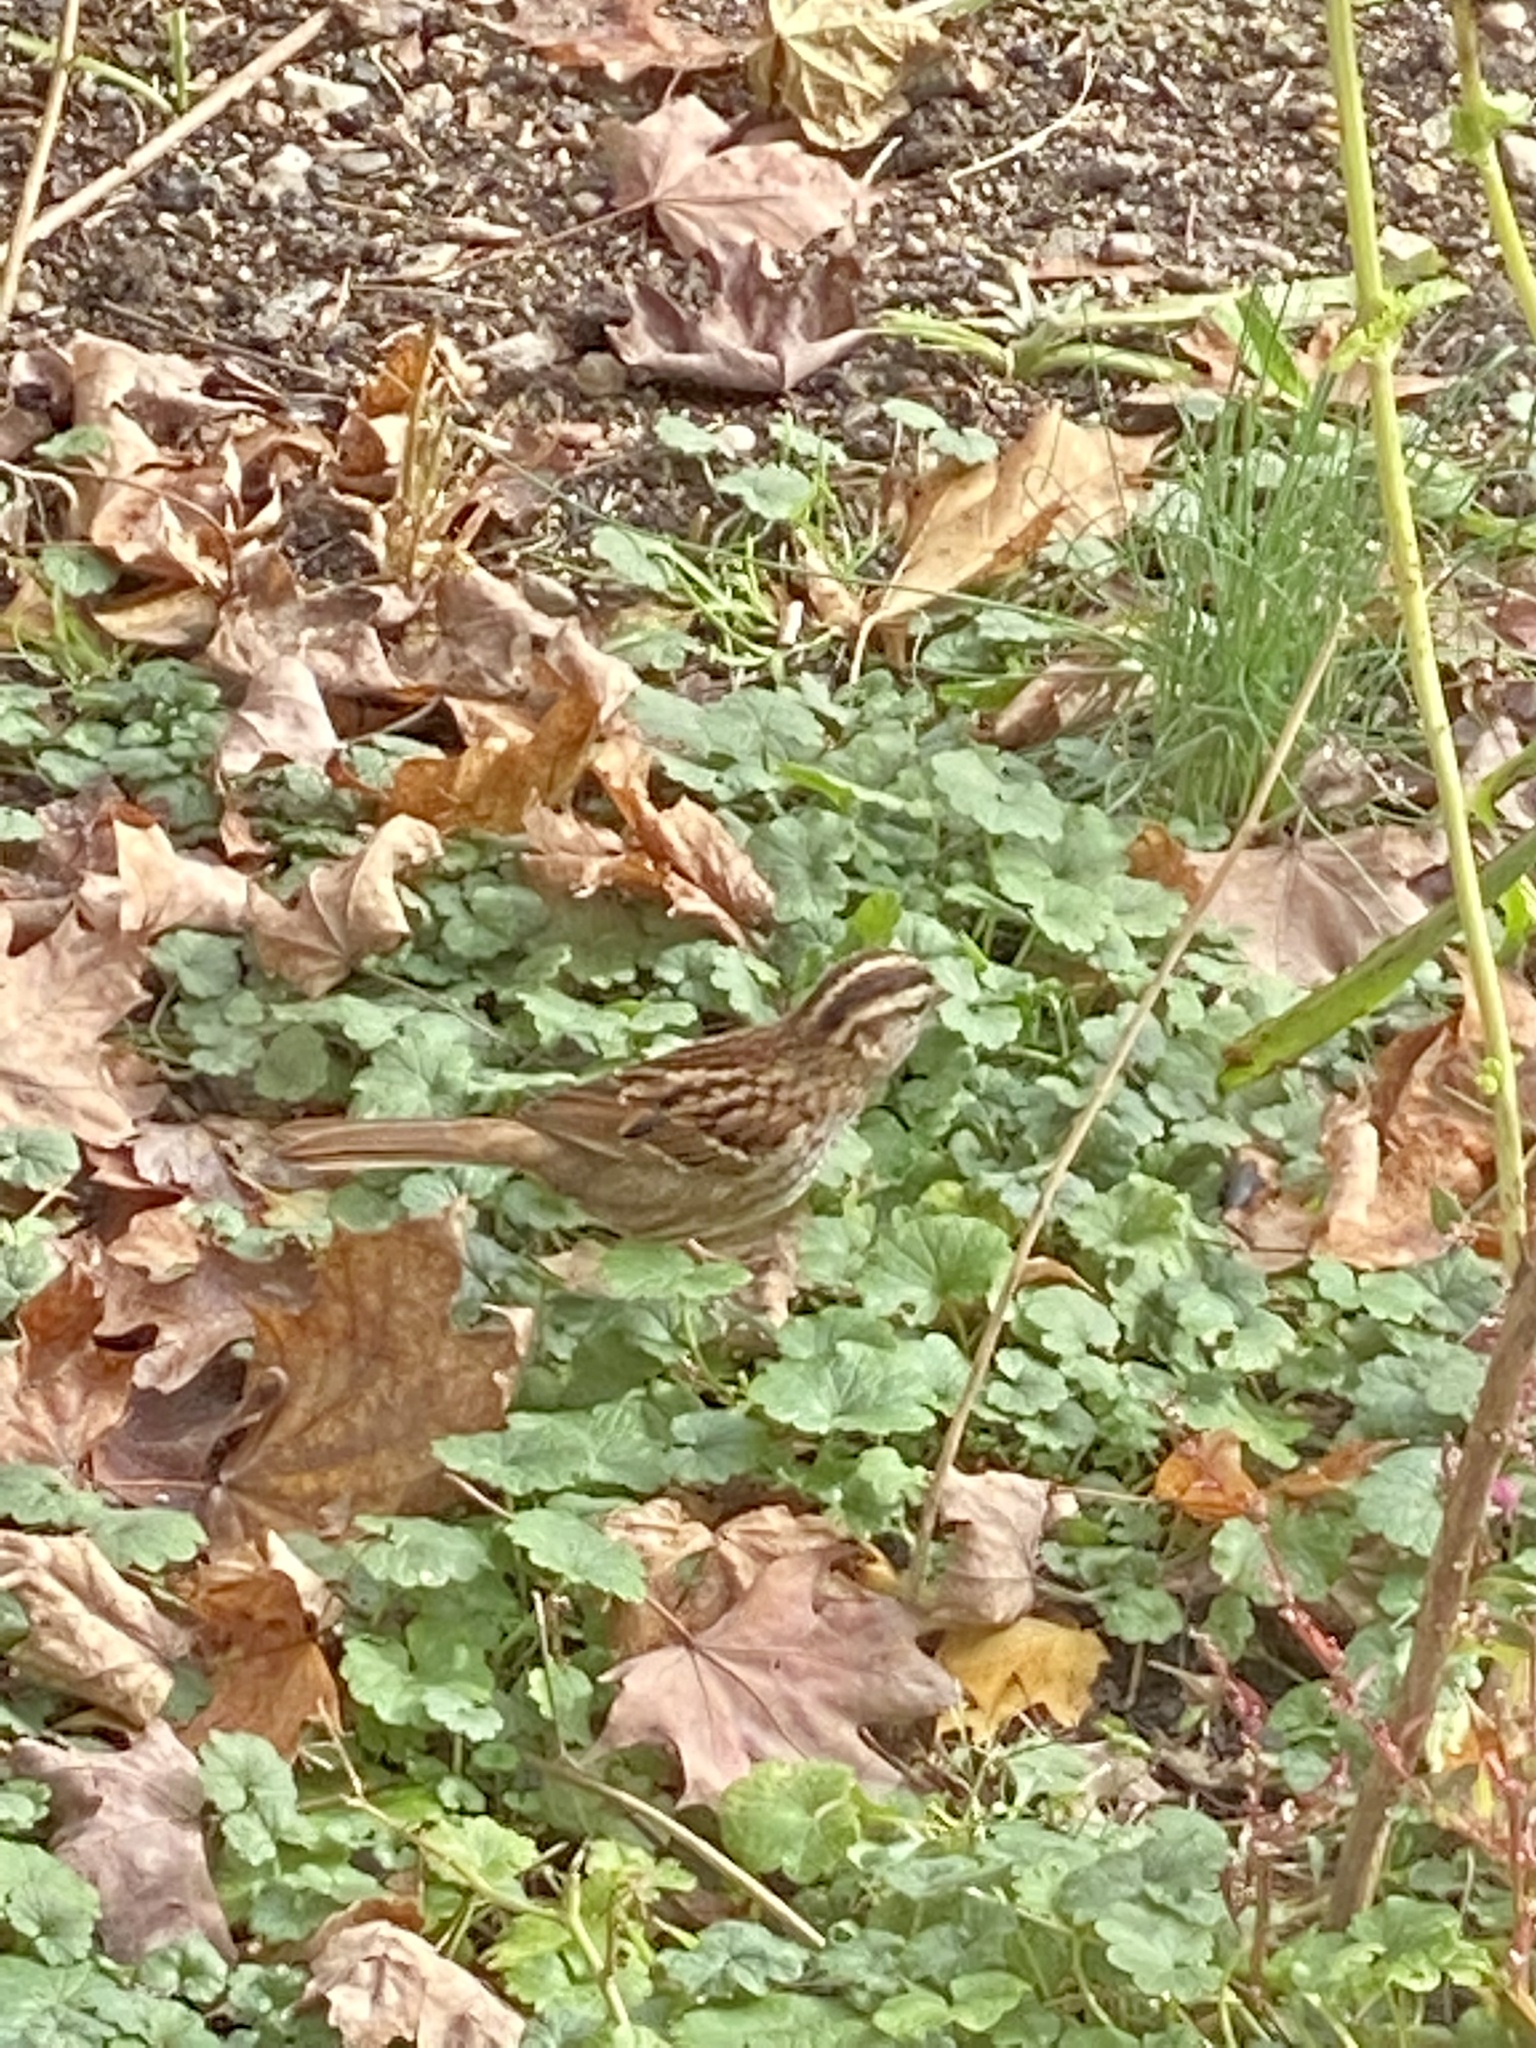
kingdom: Animalia
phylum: Chordata
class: Aves
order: Passeriformes
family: Passerellidae
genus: Zonotrichia
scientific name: Zonotrichia albicollis
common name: White-throated sparrow
